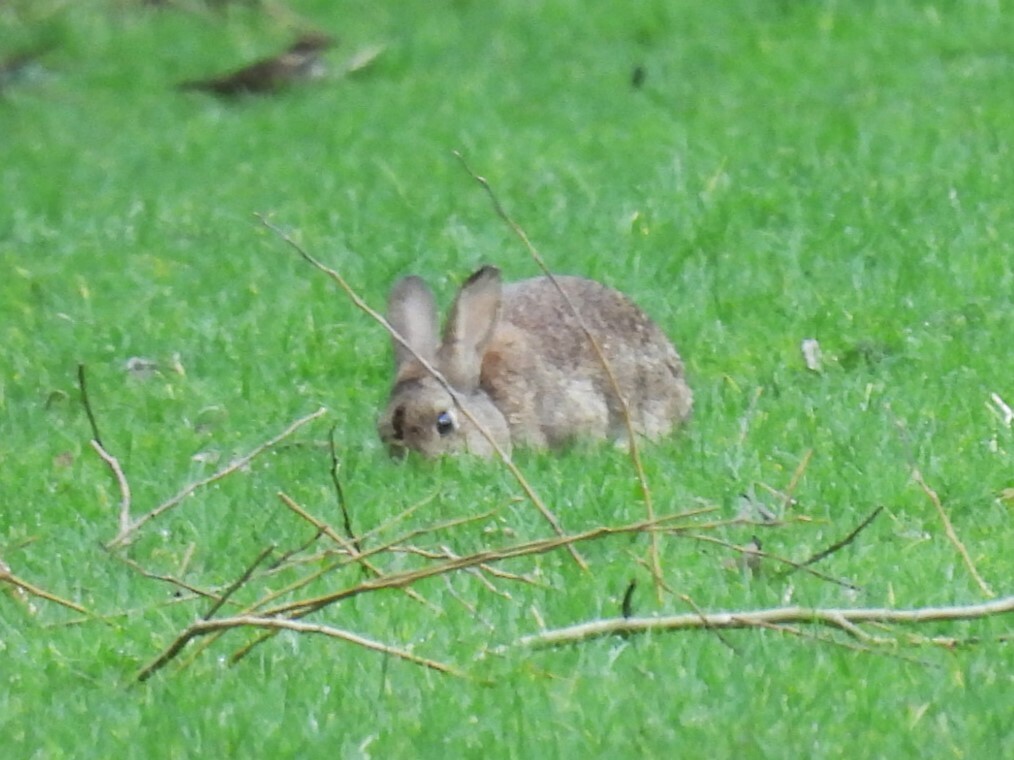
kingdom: Animalia
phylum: Chordata
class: Mammalia
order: Lagomorpha
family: Leporidae
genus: Oryctolagus
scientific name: Oryctolagus cuniculus
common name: European rabbit
